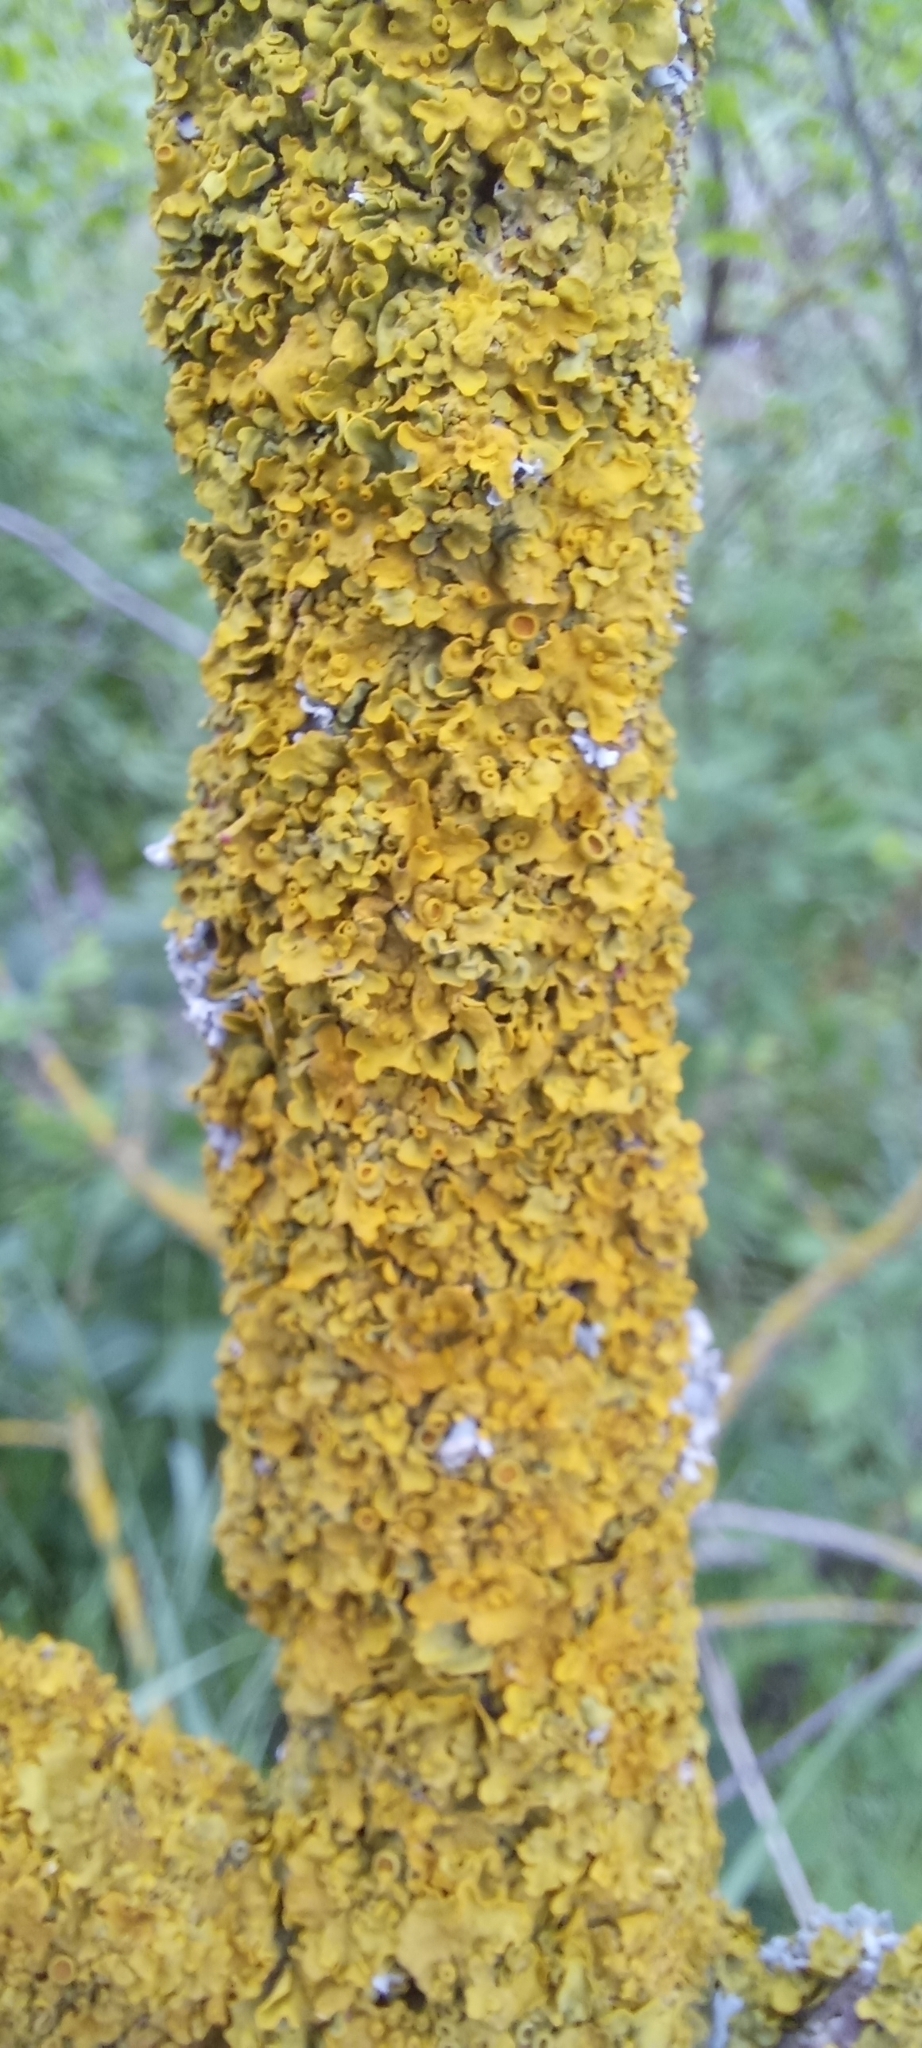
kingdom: Fungi
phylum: Ascomycota
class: Lecanoromycetes
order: Teloschistales
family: Teloschistaceae
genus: Xanthoria
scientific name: Xanthoria parietina
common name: Common orange lichen
